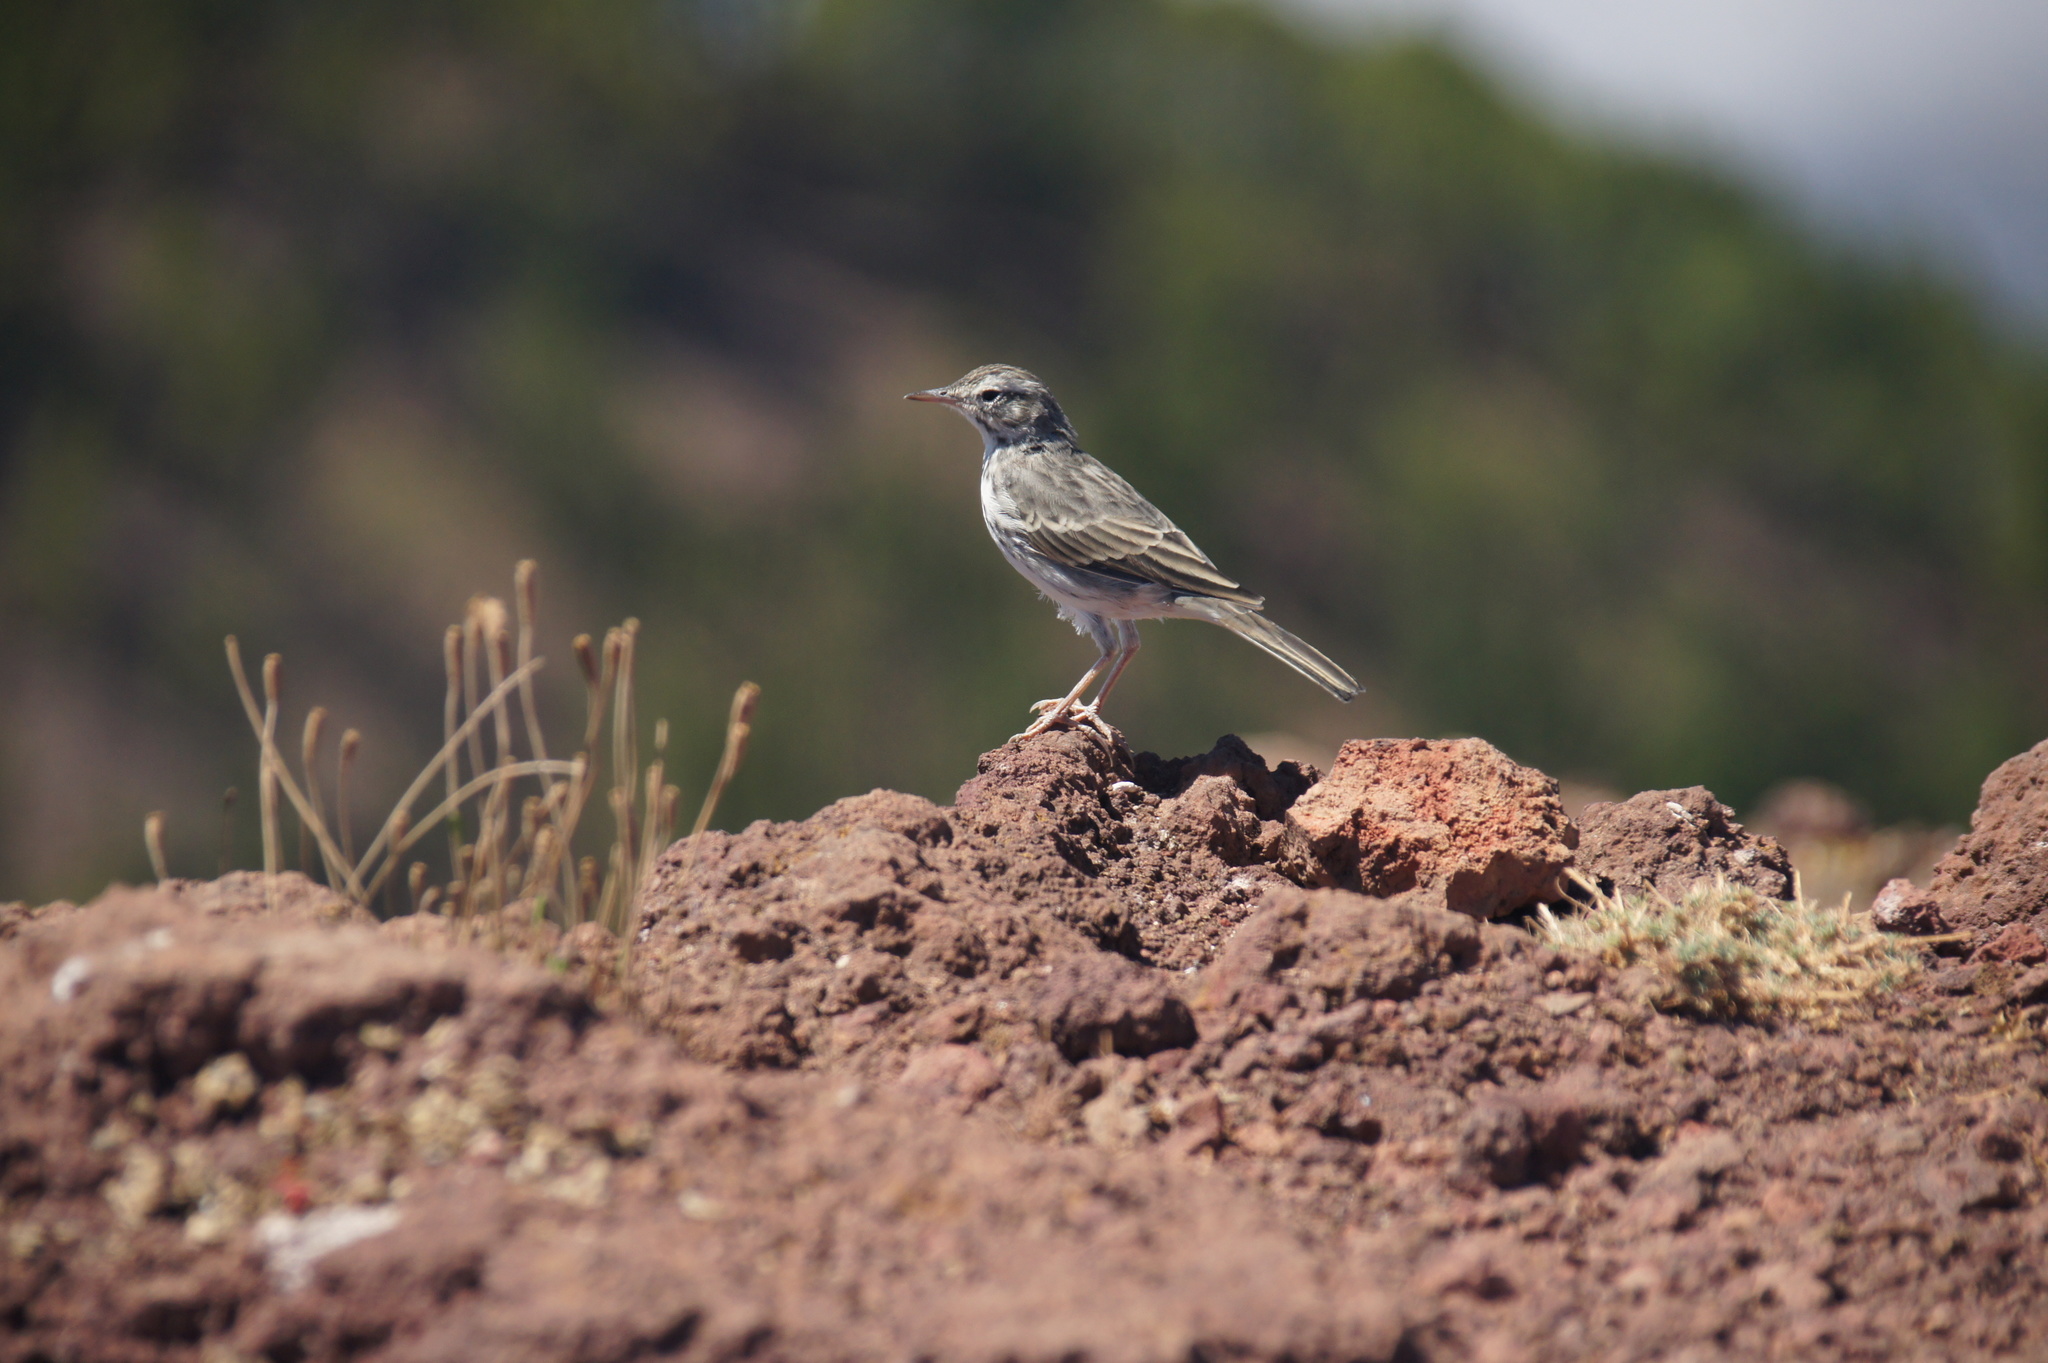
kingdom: Animalia
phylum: Chordata
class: Aves
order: Passeriformes
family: Motacillidae
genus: Anthus
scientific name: Anthus berthelotii
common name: Berthelot's pipit
